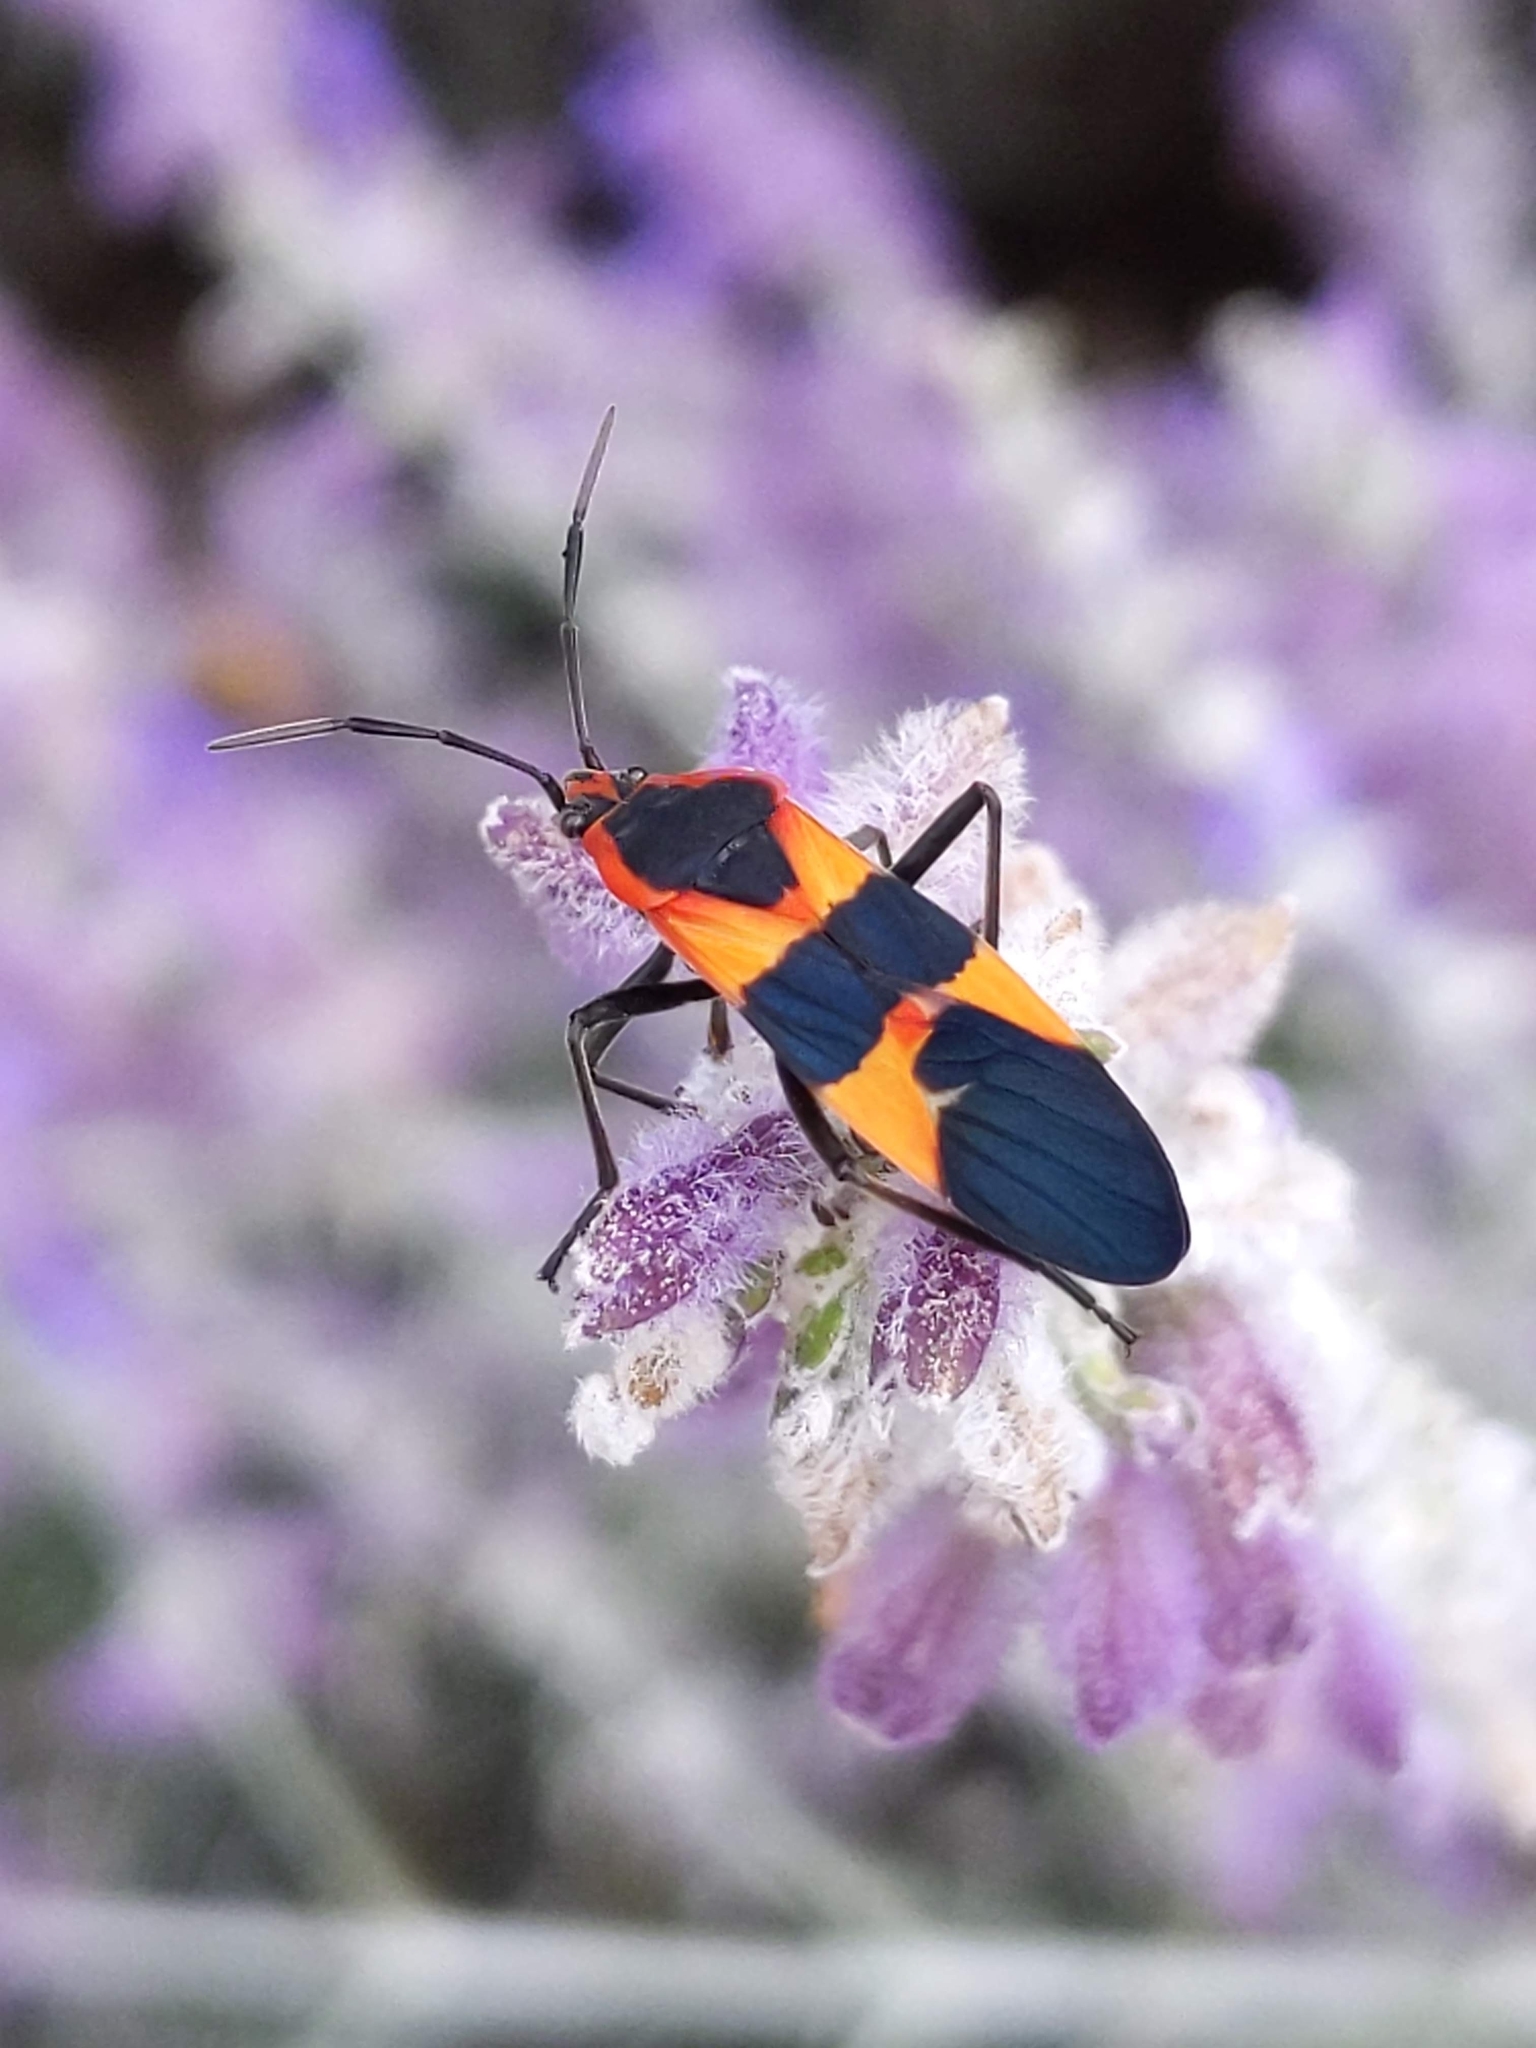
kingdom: Animalia
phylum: Arthropoda
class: Insecta
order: Hemiptera
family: Lygaeidae
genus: Oncopeltus
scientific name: Oncopeltus fasciatus
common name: Large milkweed bug
